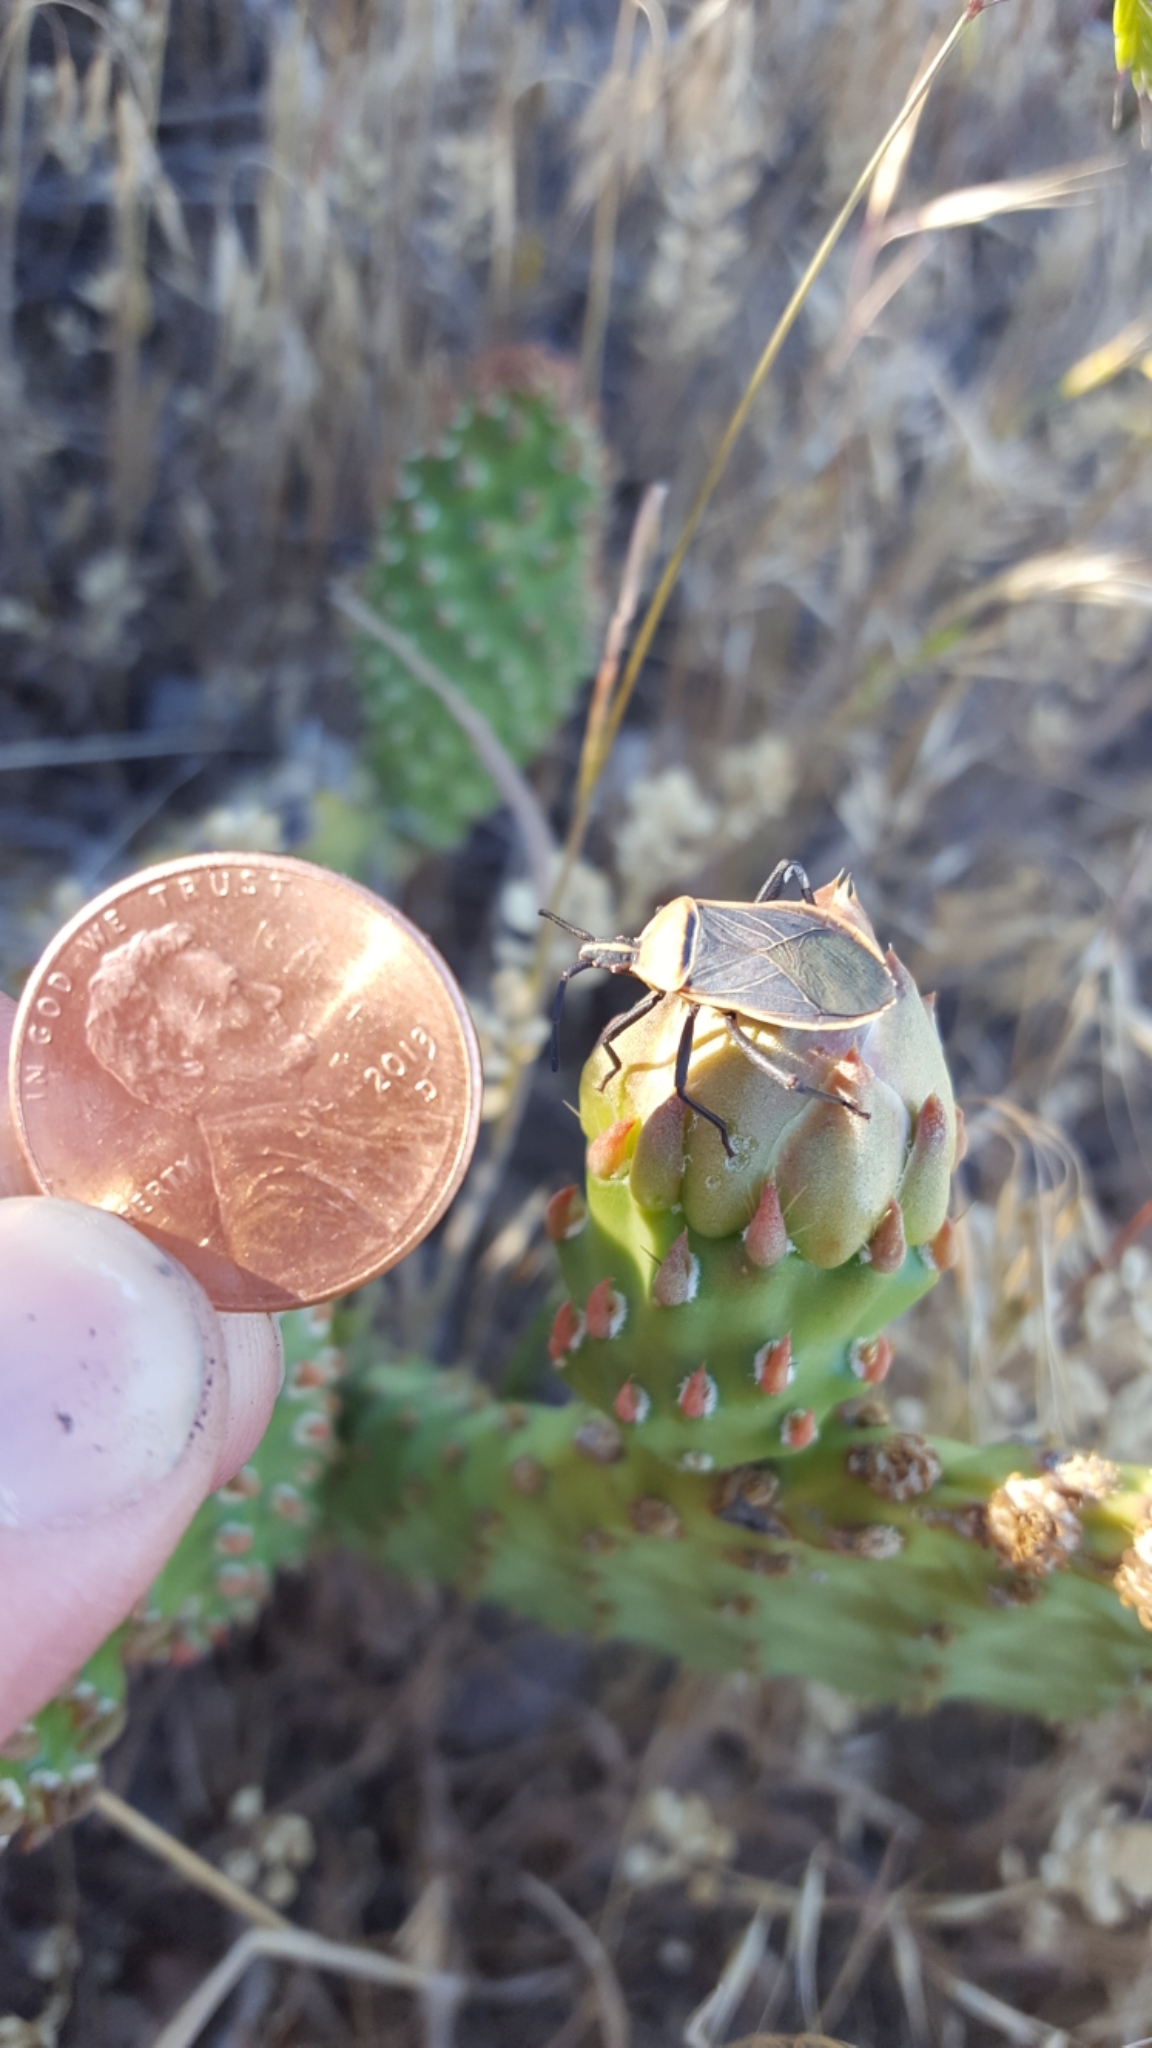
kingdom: Animalia
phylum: Arthropoda
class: Insecta
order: Hemiptera
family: Coreidae
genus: Chelinidea
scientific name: Chelinidea vittiger
